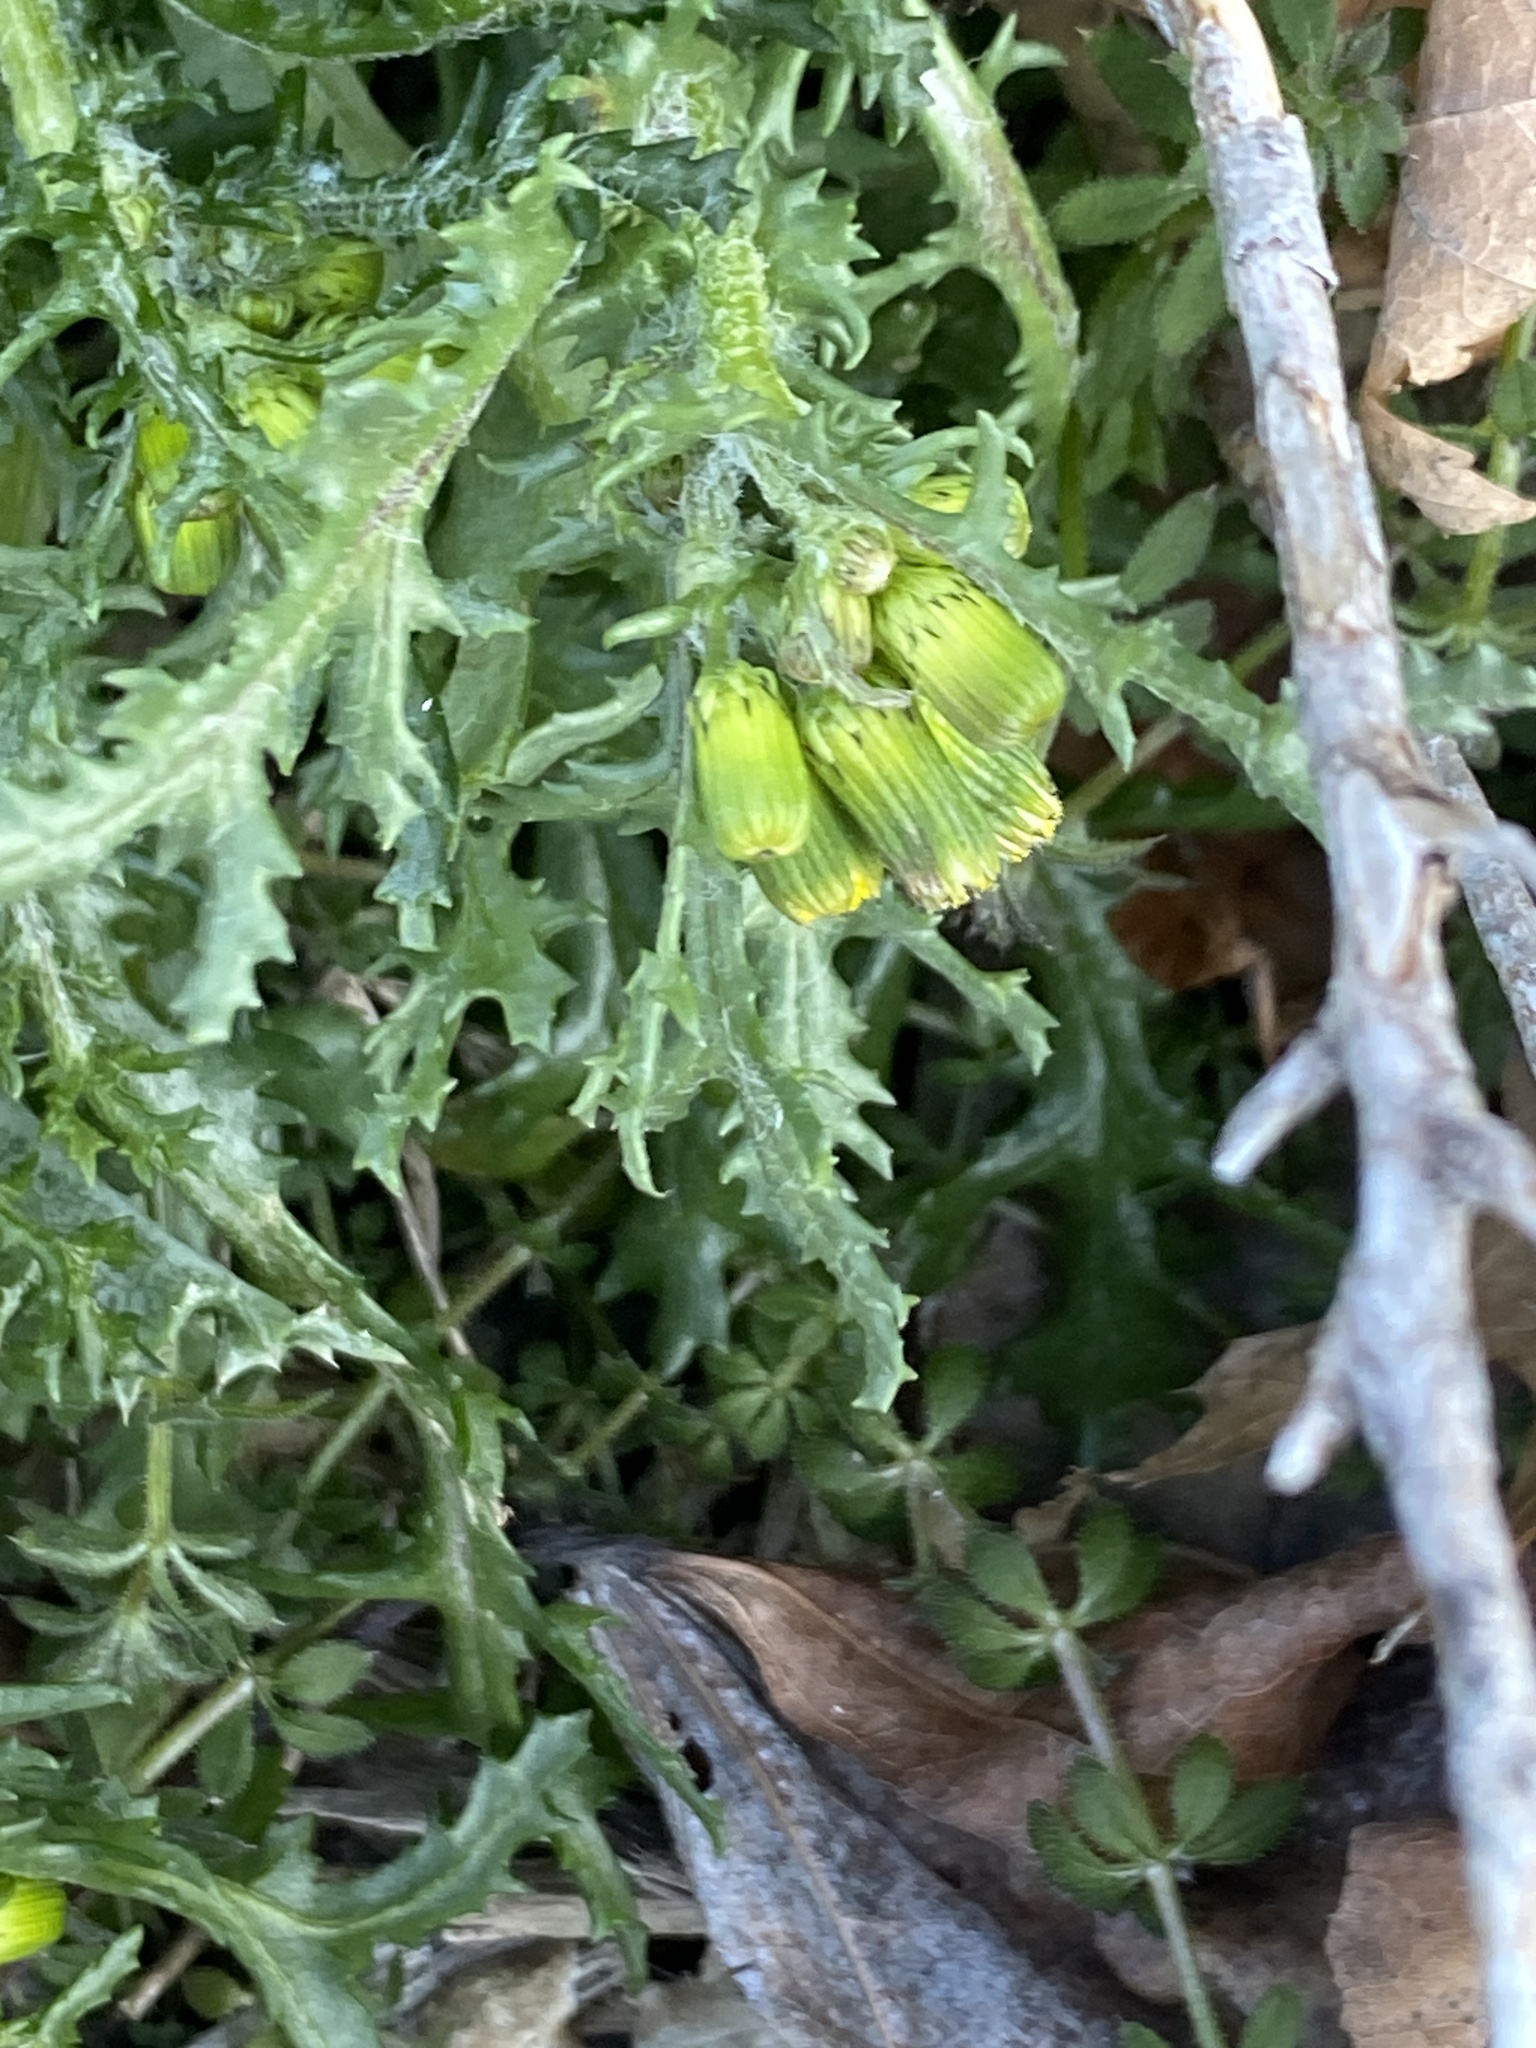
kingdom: Plantae
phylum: Tracheophyta
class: Magnoliopsida
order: Asterales
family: Asteraceae
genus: Senecio
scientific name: Senecio vulgaris
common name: Old-man-in-the-spring
